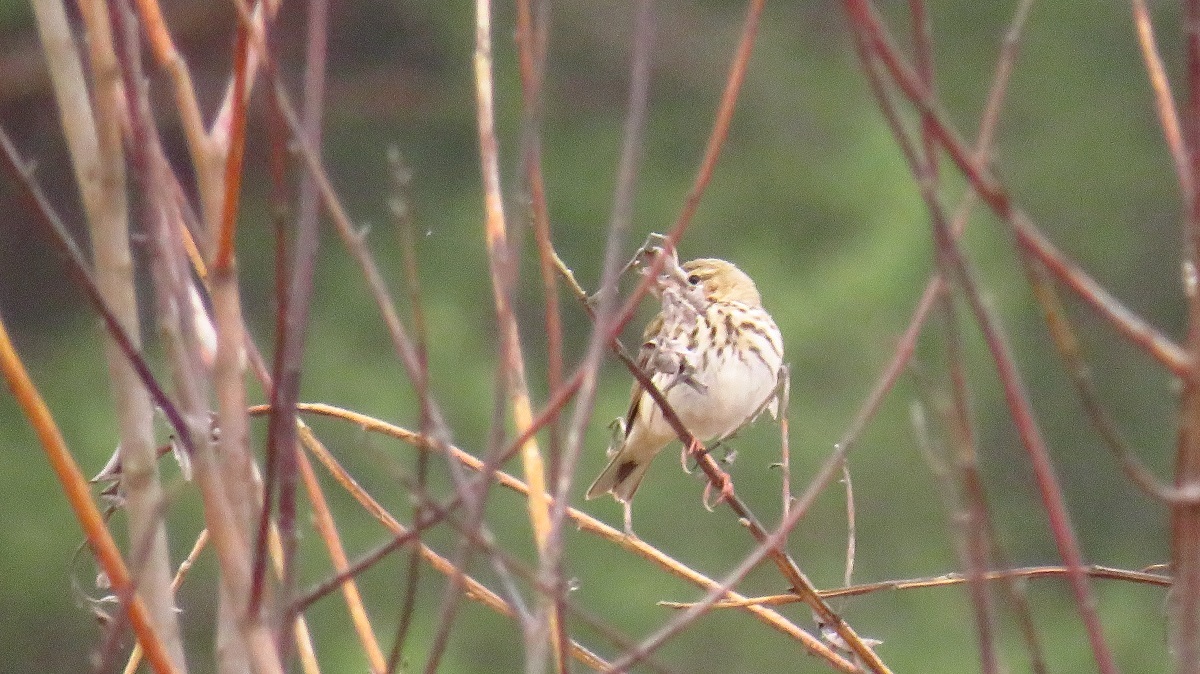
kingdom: Animalia
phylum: Chordata
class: Aves
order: Passeriformes
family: Motacillidae
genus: Anthus
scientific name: Anthus trivialis
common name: Tree pipit
